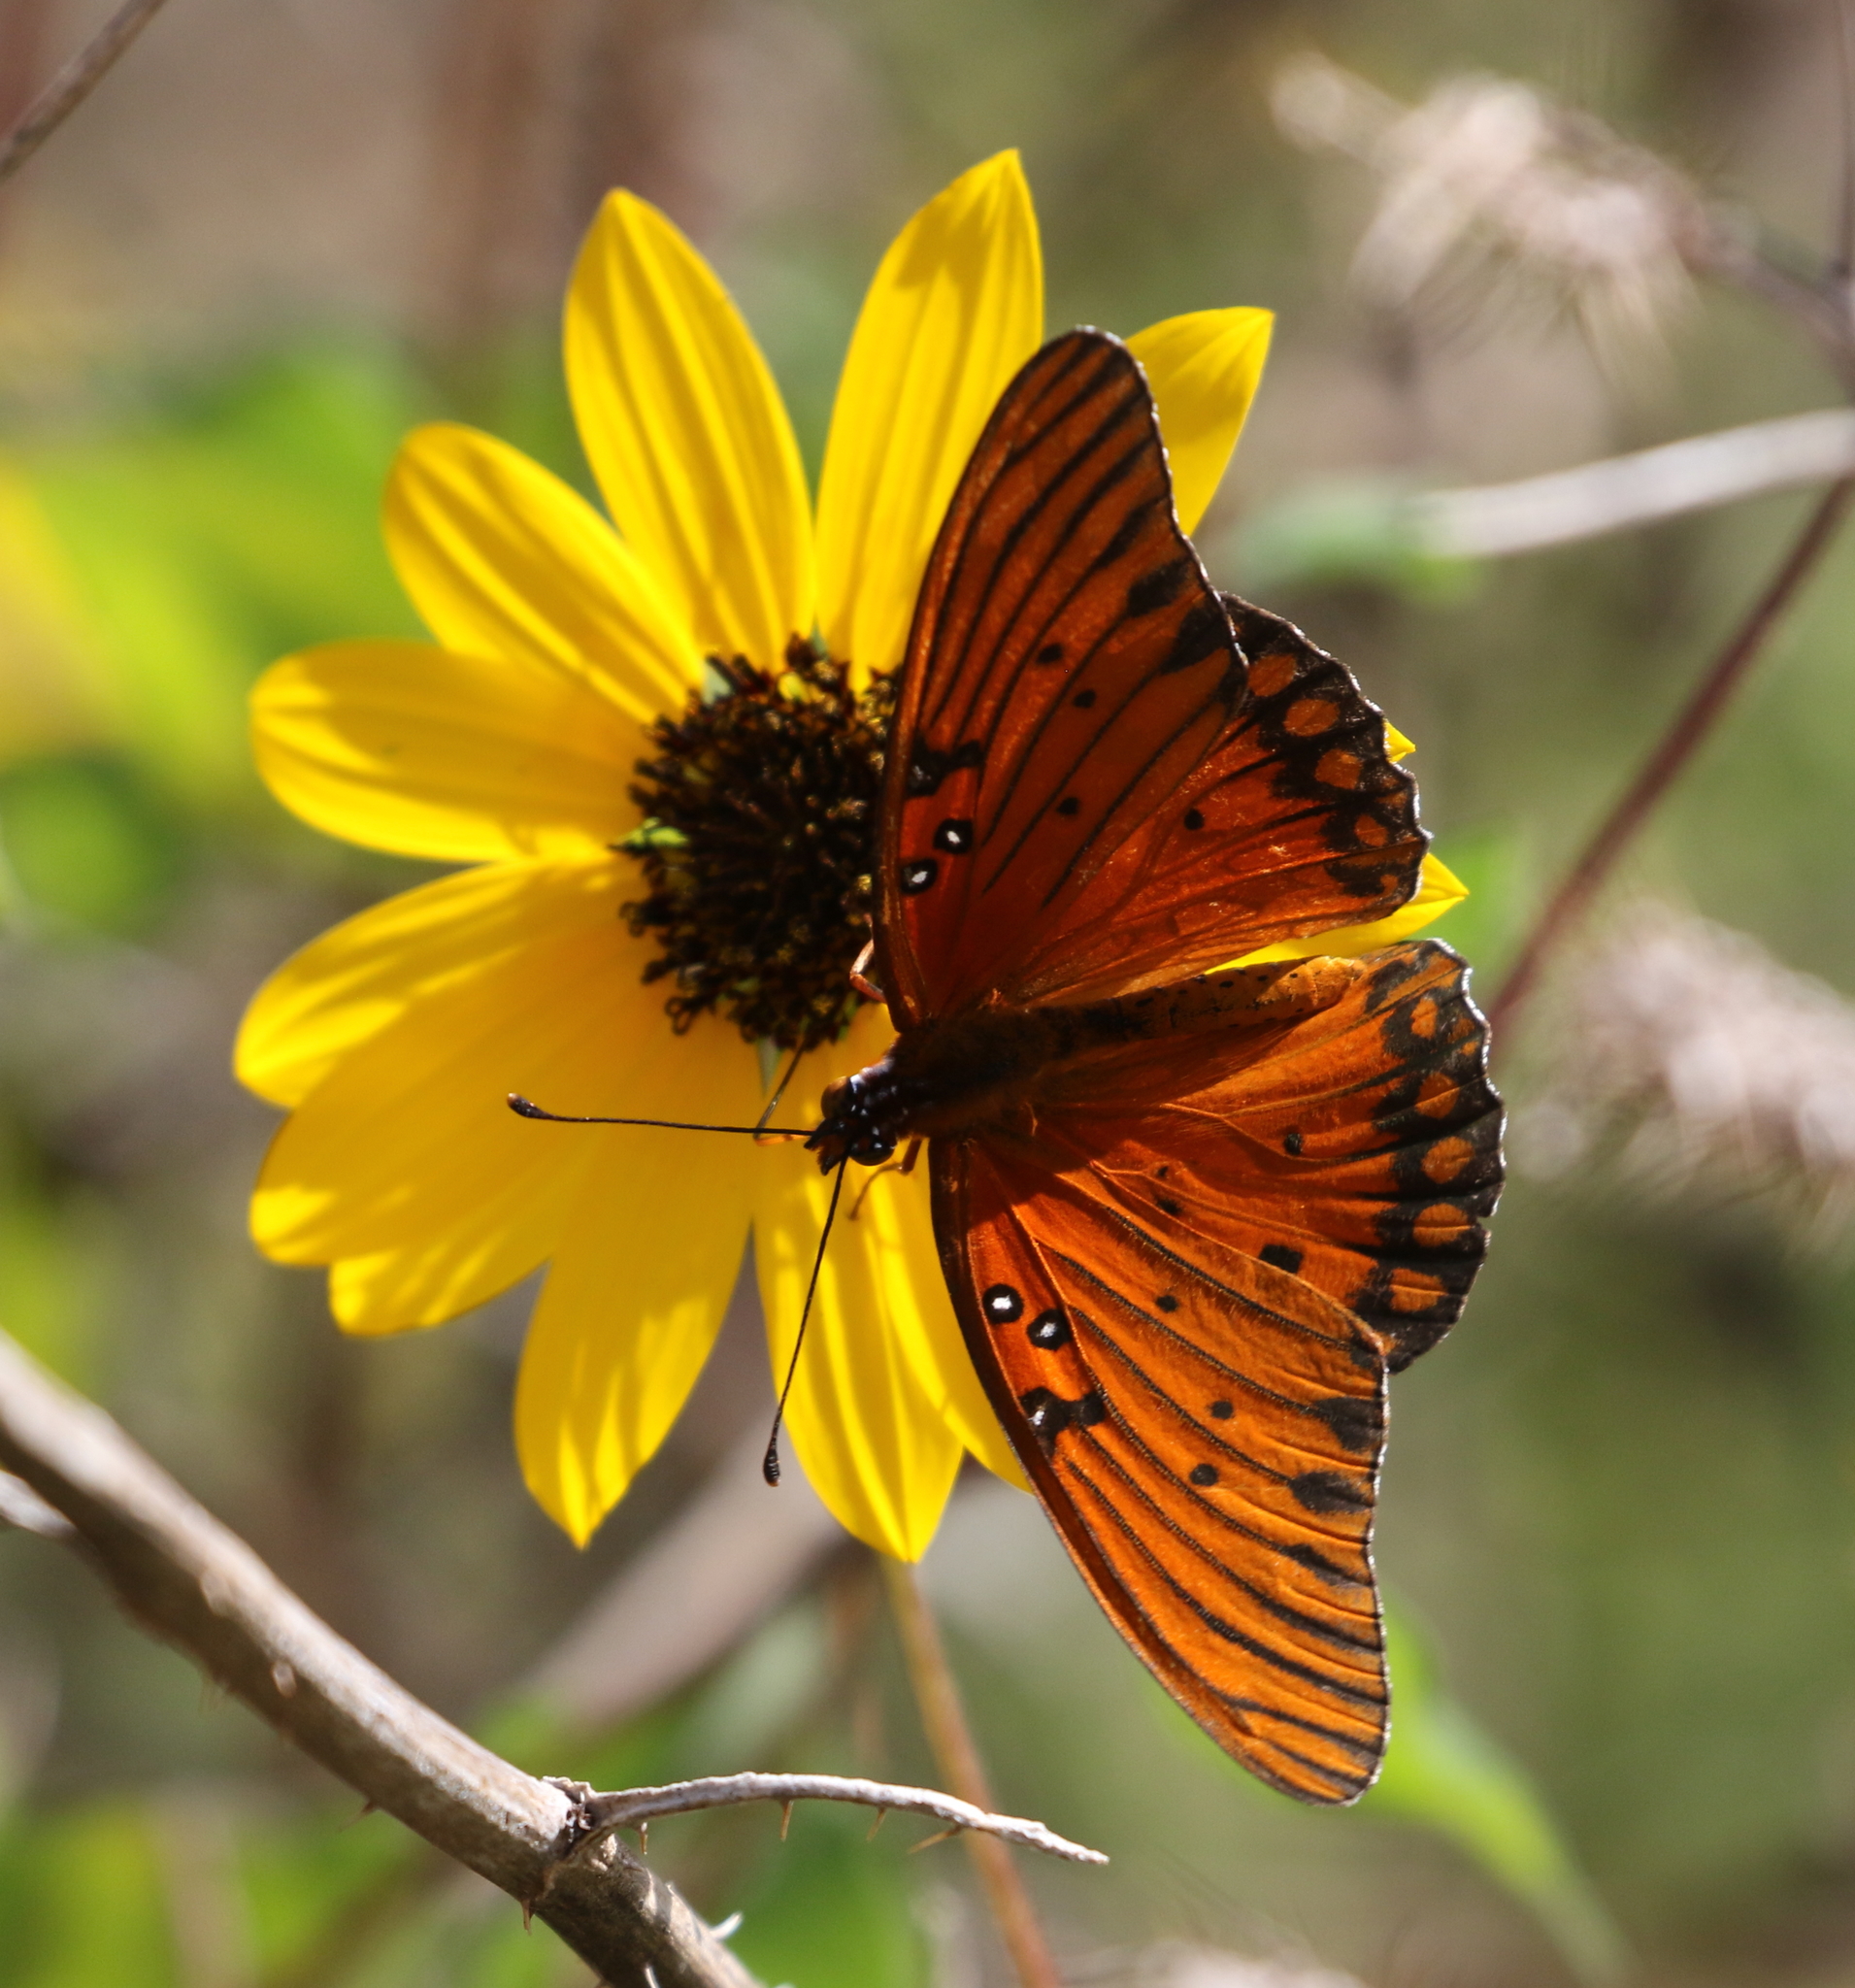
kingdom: Animalia
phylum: Arthropoda
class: Insecta
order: Lepidoptera
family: Nymphalidae
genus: Dione
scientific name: Dione vanillae
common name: Gulf fritillary
